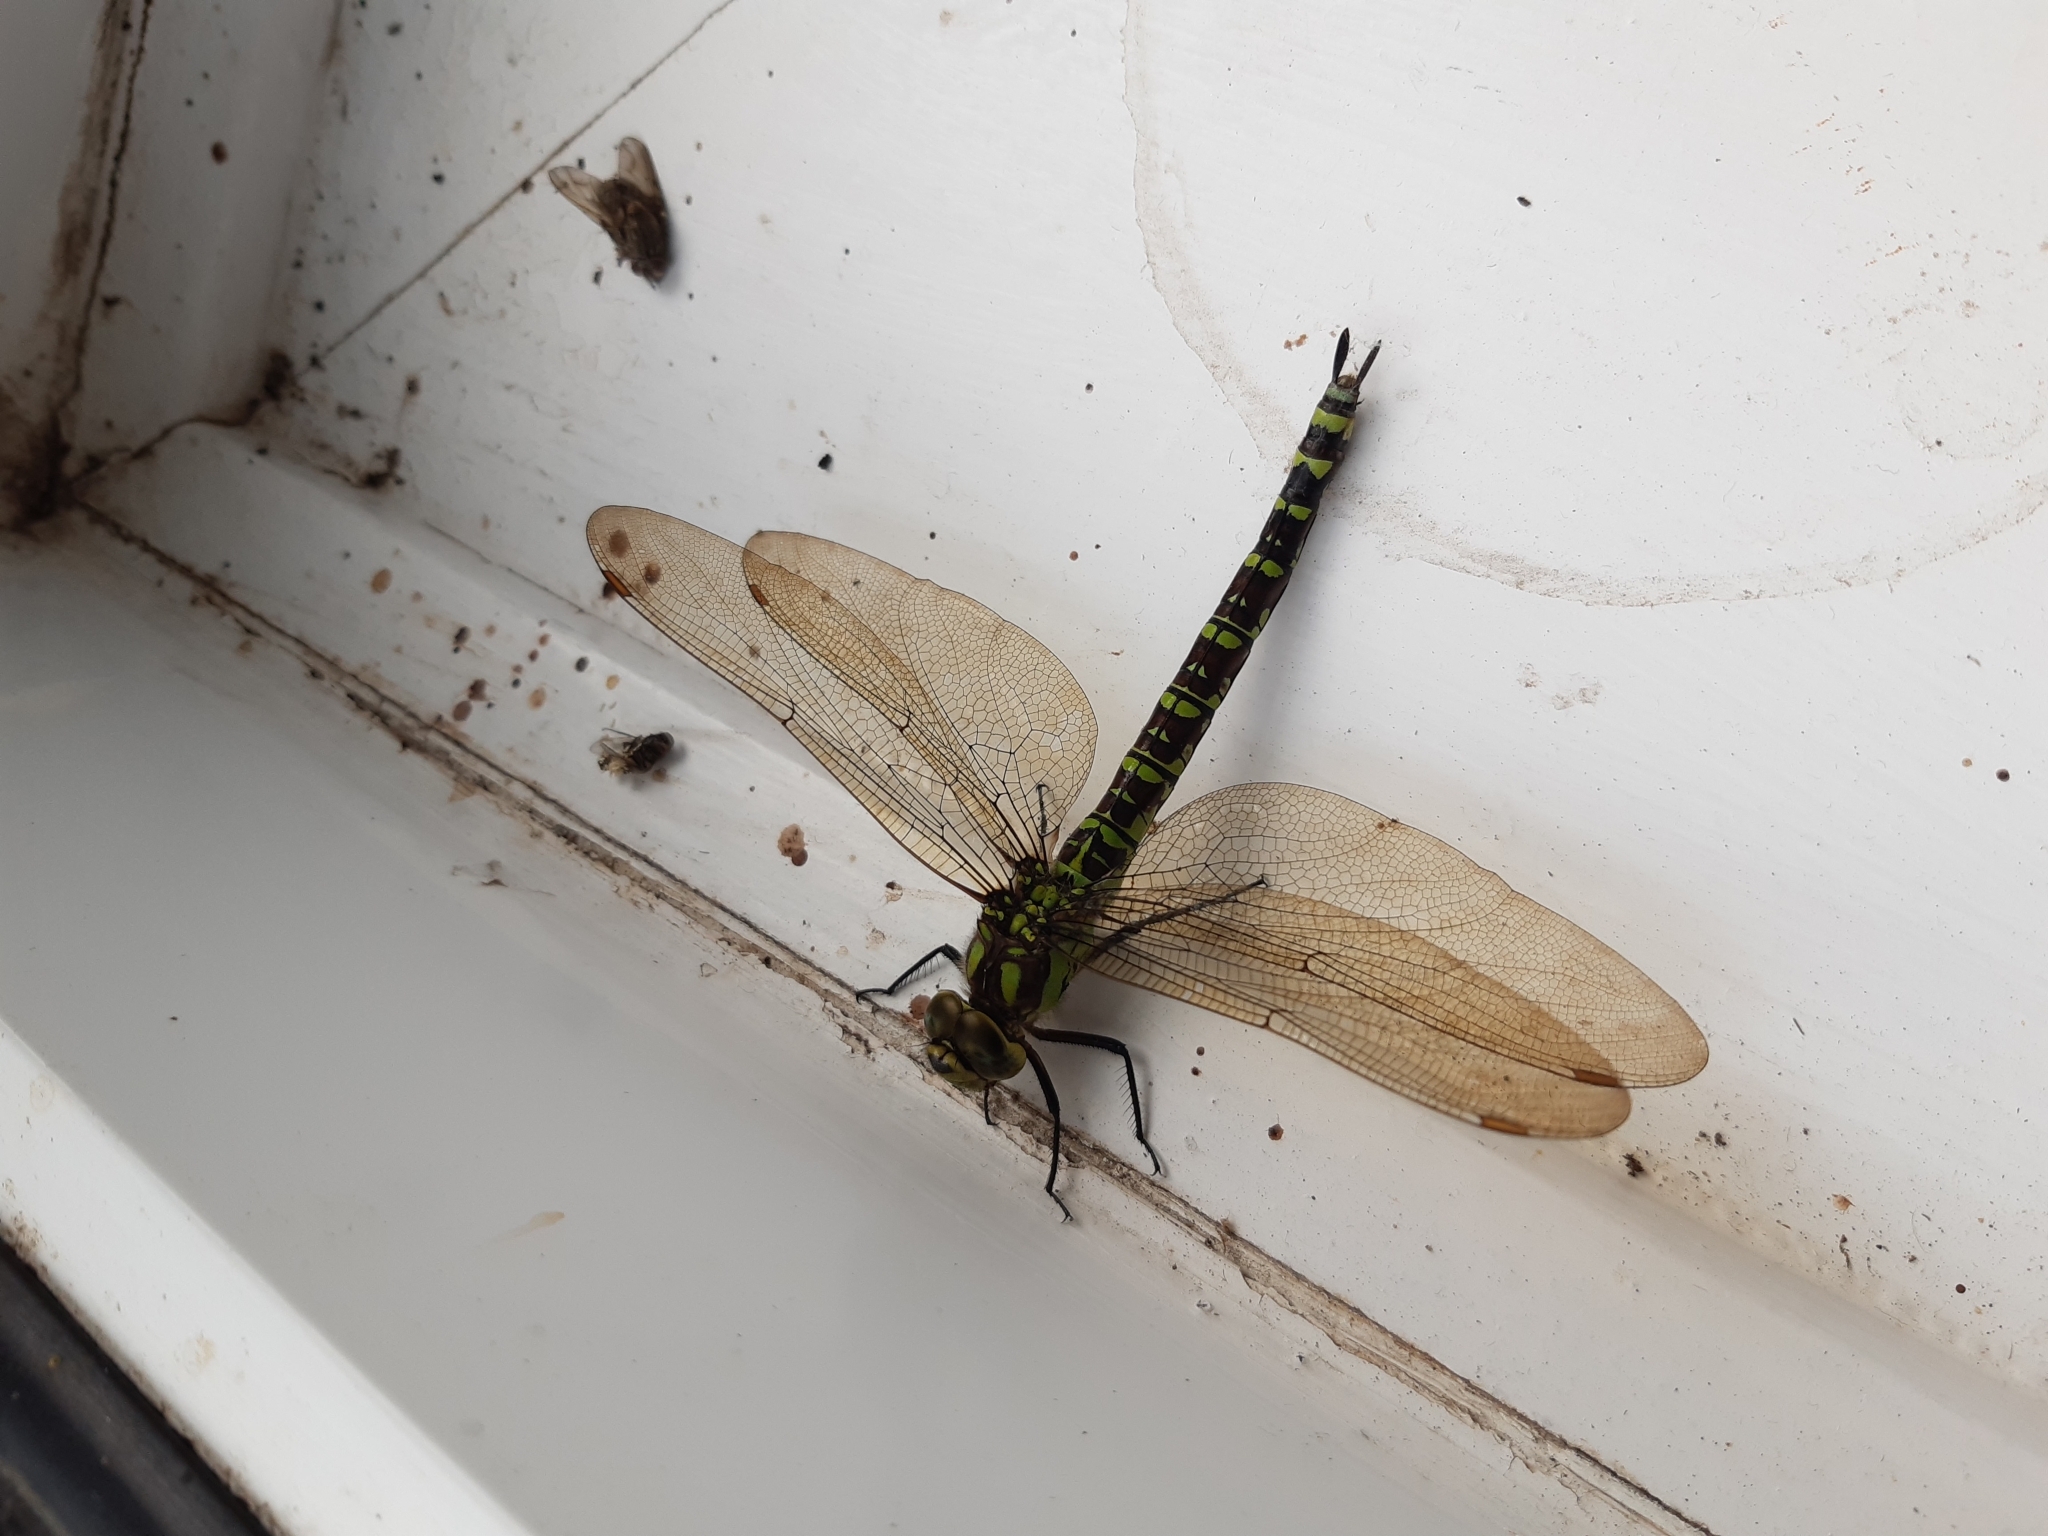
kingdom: Animalia
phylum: Arthropoda
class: Insecta
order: Odonata
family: Aeshnidae
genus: Aeshna
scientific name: Aeshna cyanea
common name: Southern hawker
